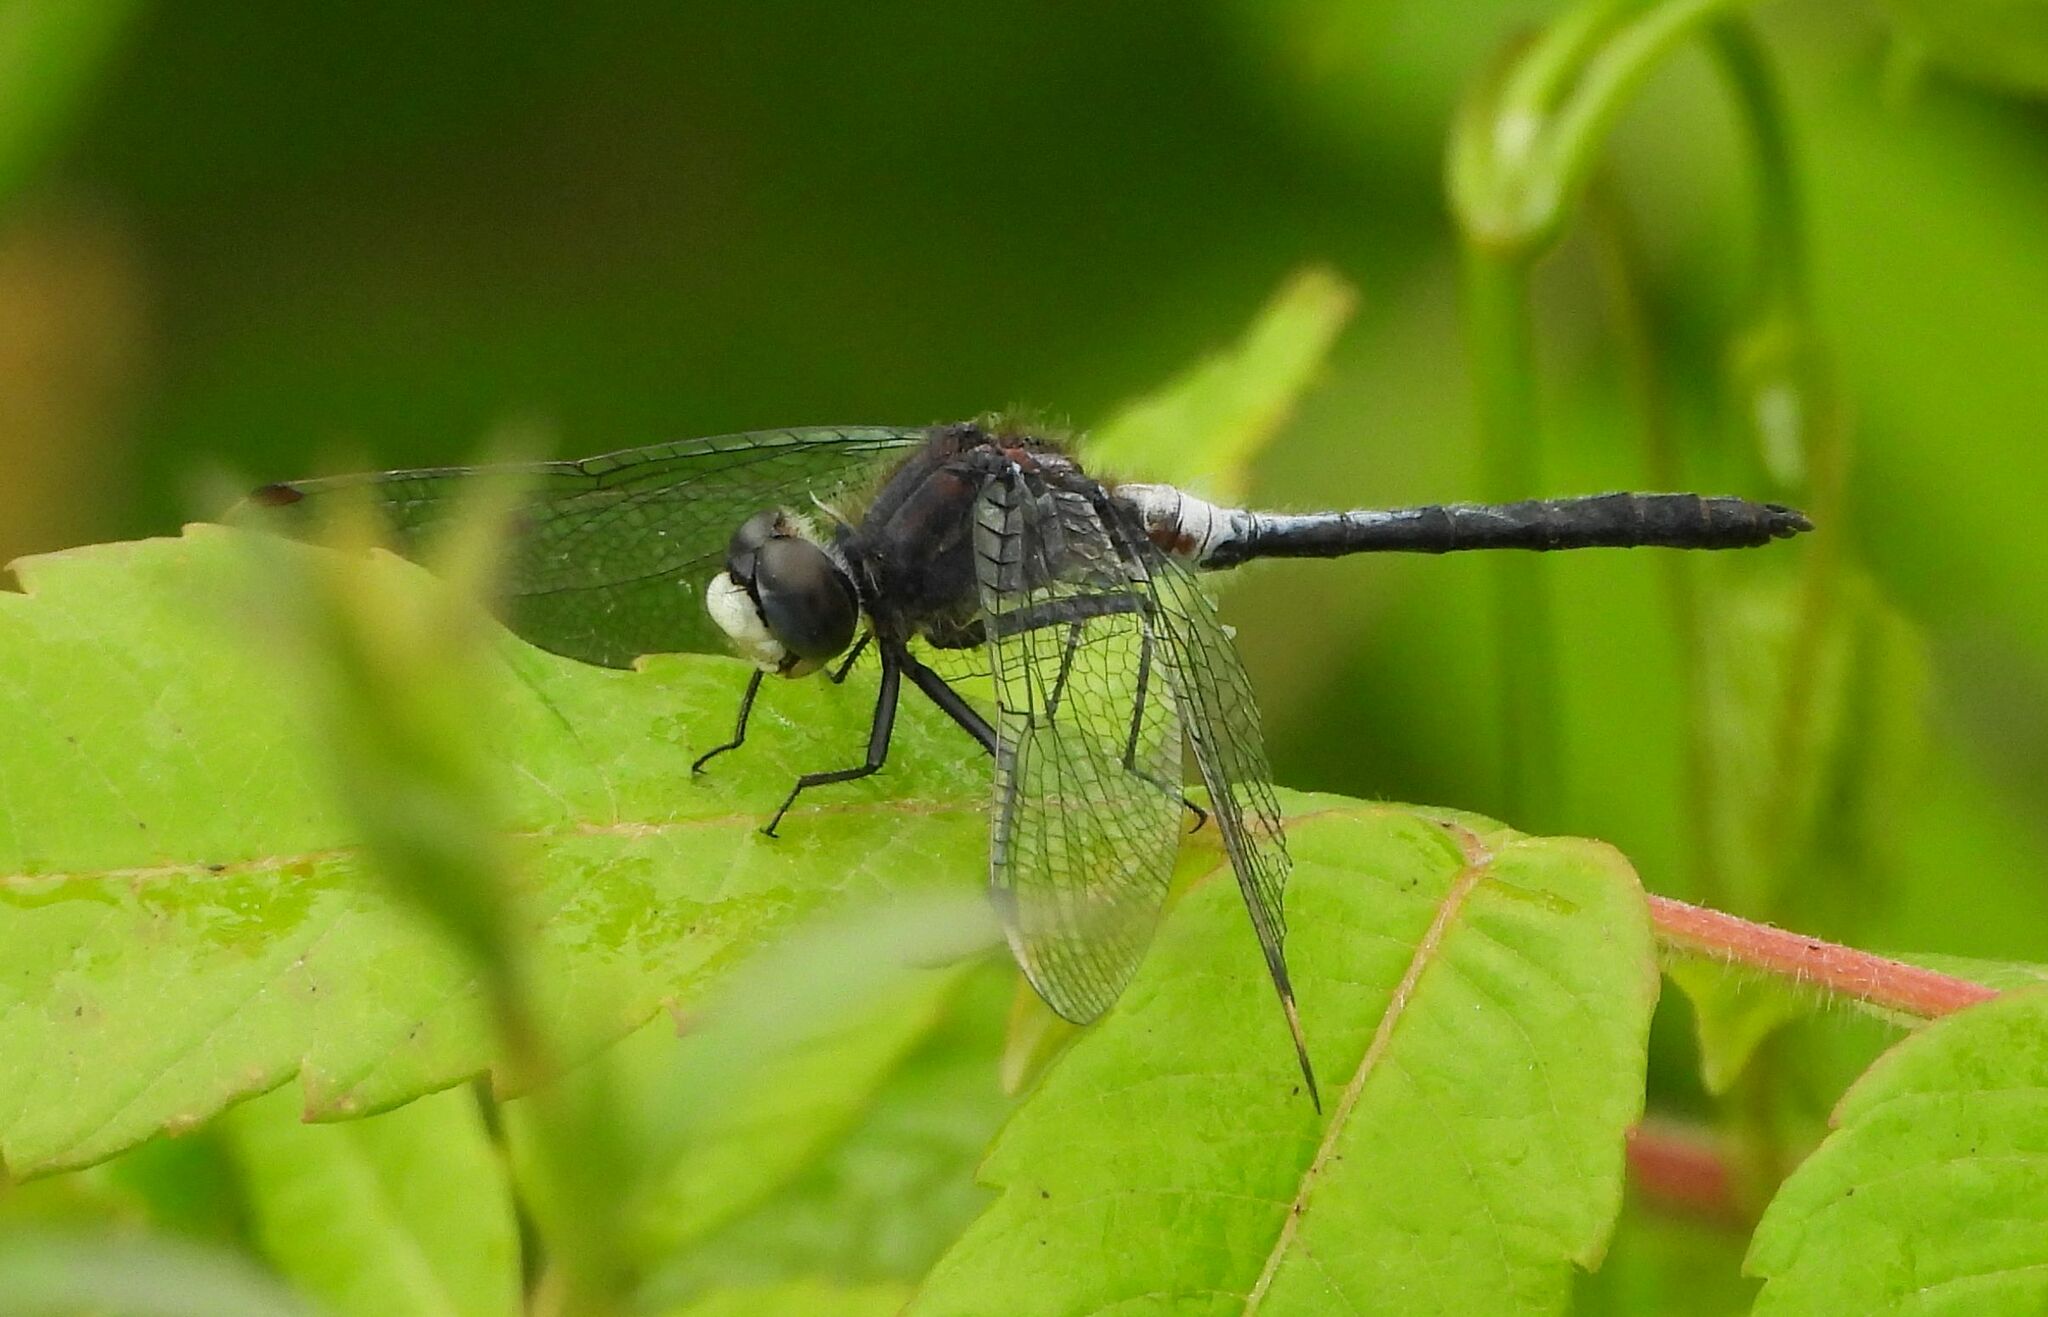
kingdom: Animalia
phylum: Arthropoda
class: Insecta
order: Odonata
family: Libellulidae
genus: Leucorrhinia
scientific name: Leucorrhinia proxima
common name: Belted whiteface
